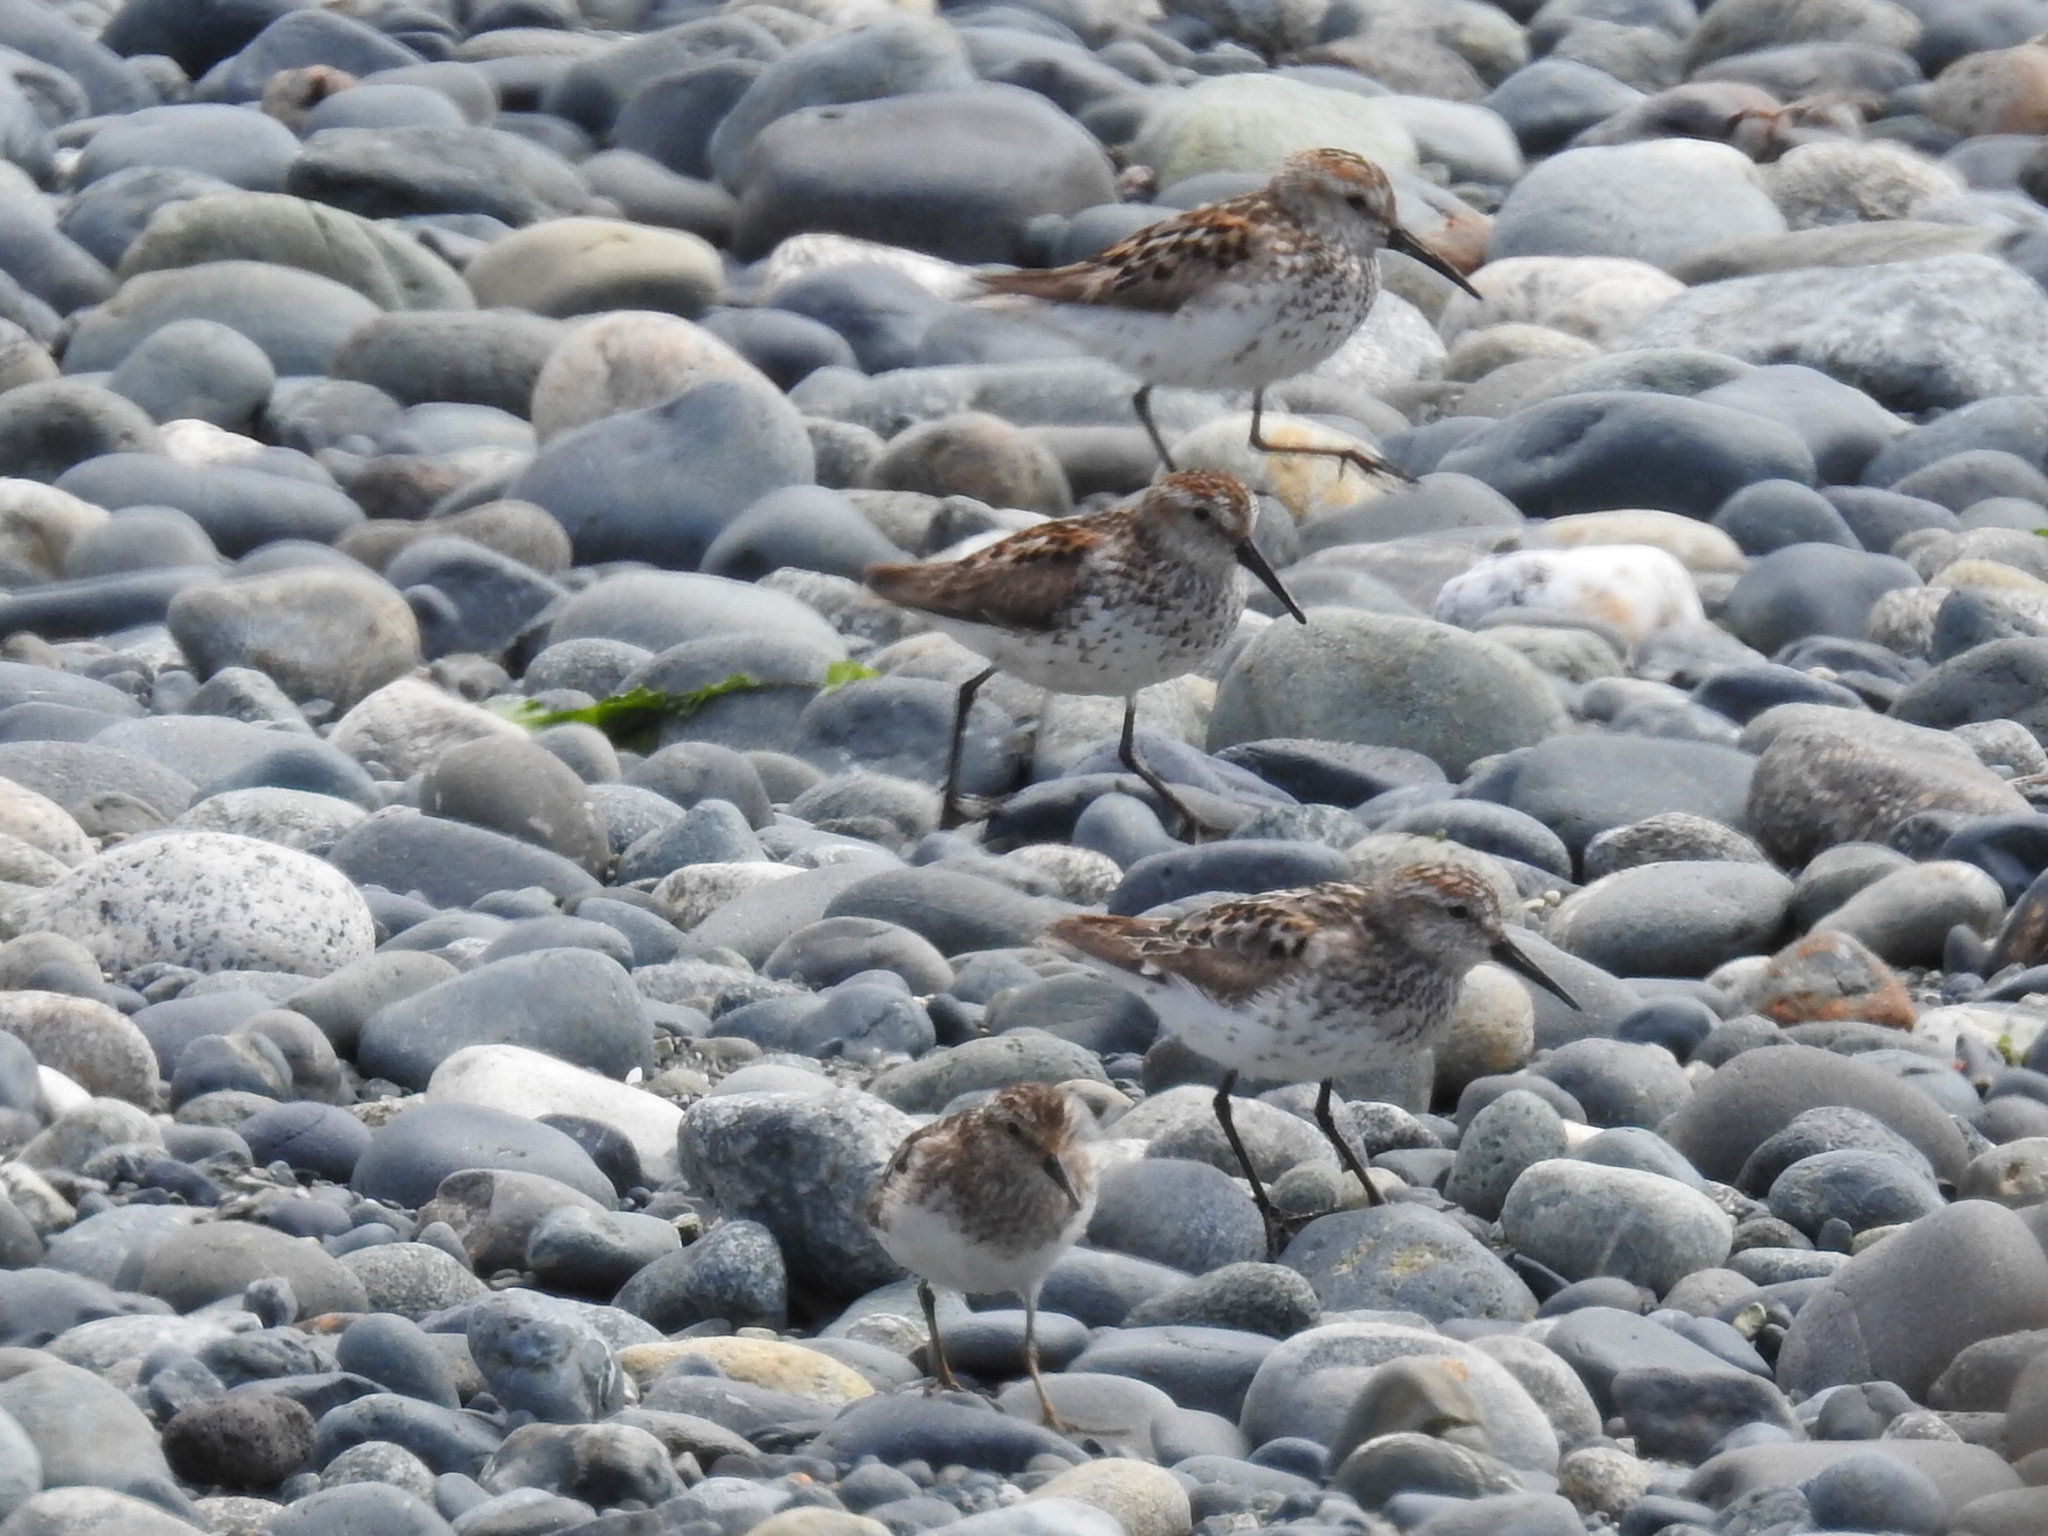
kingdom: Animalia
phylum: Chordata
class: Aves
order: Charadriiformes
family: Scolopacidae
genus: Calidris
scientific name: Calidris mauri
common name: Western sandpiper
